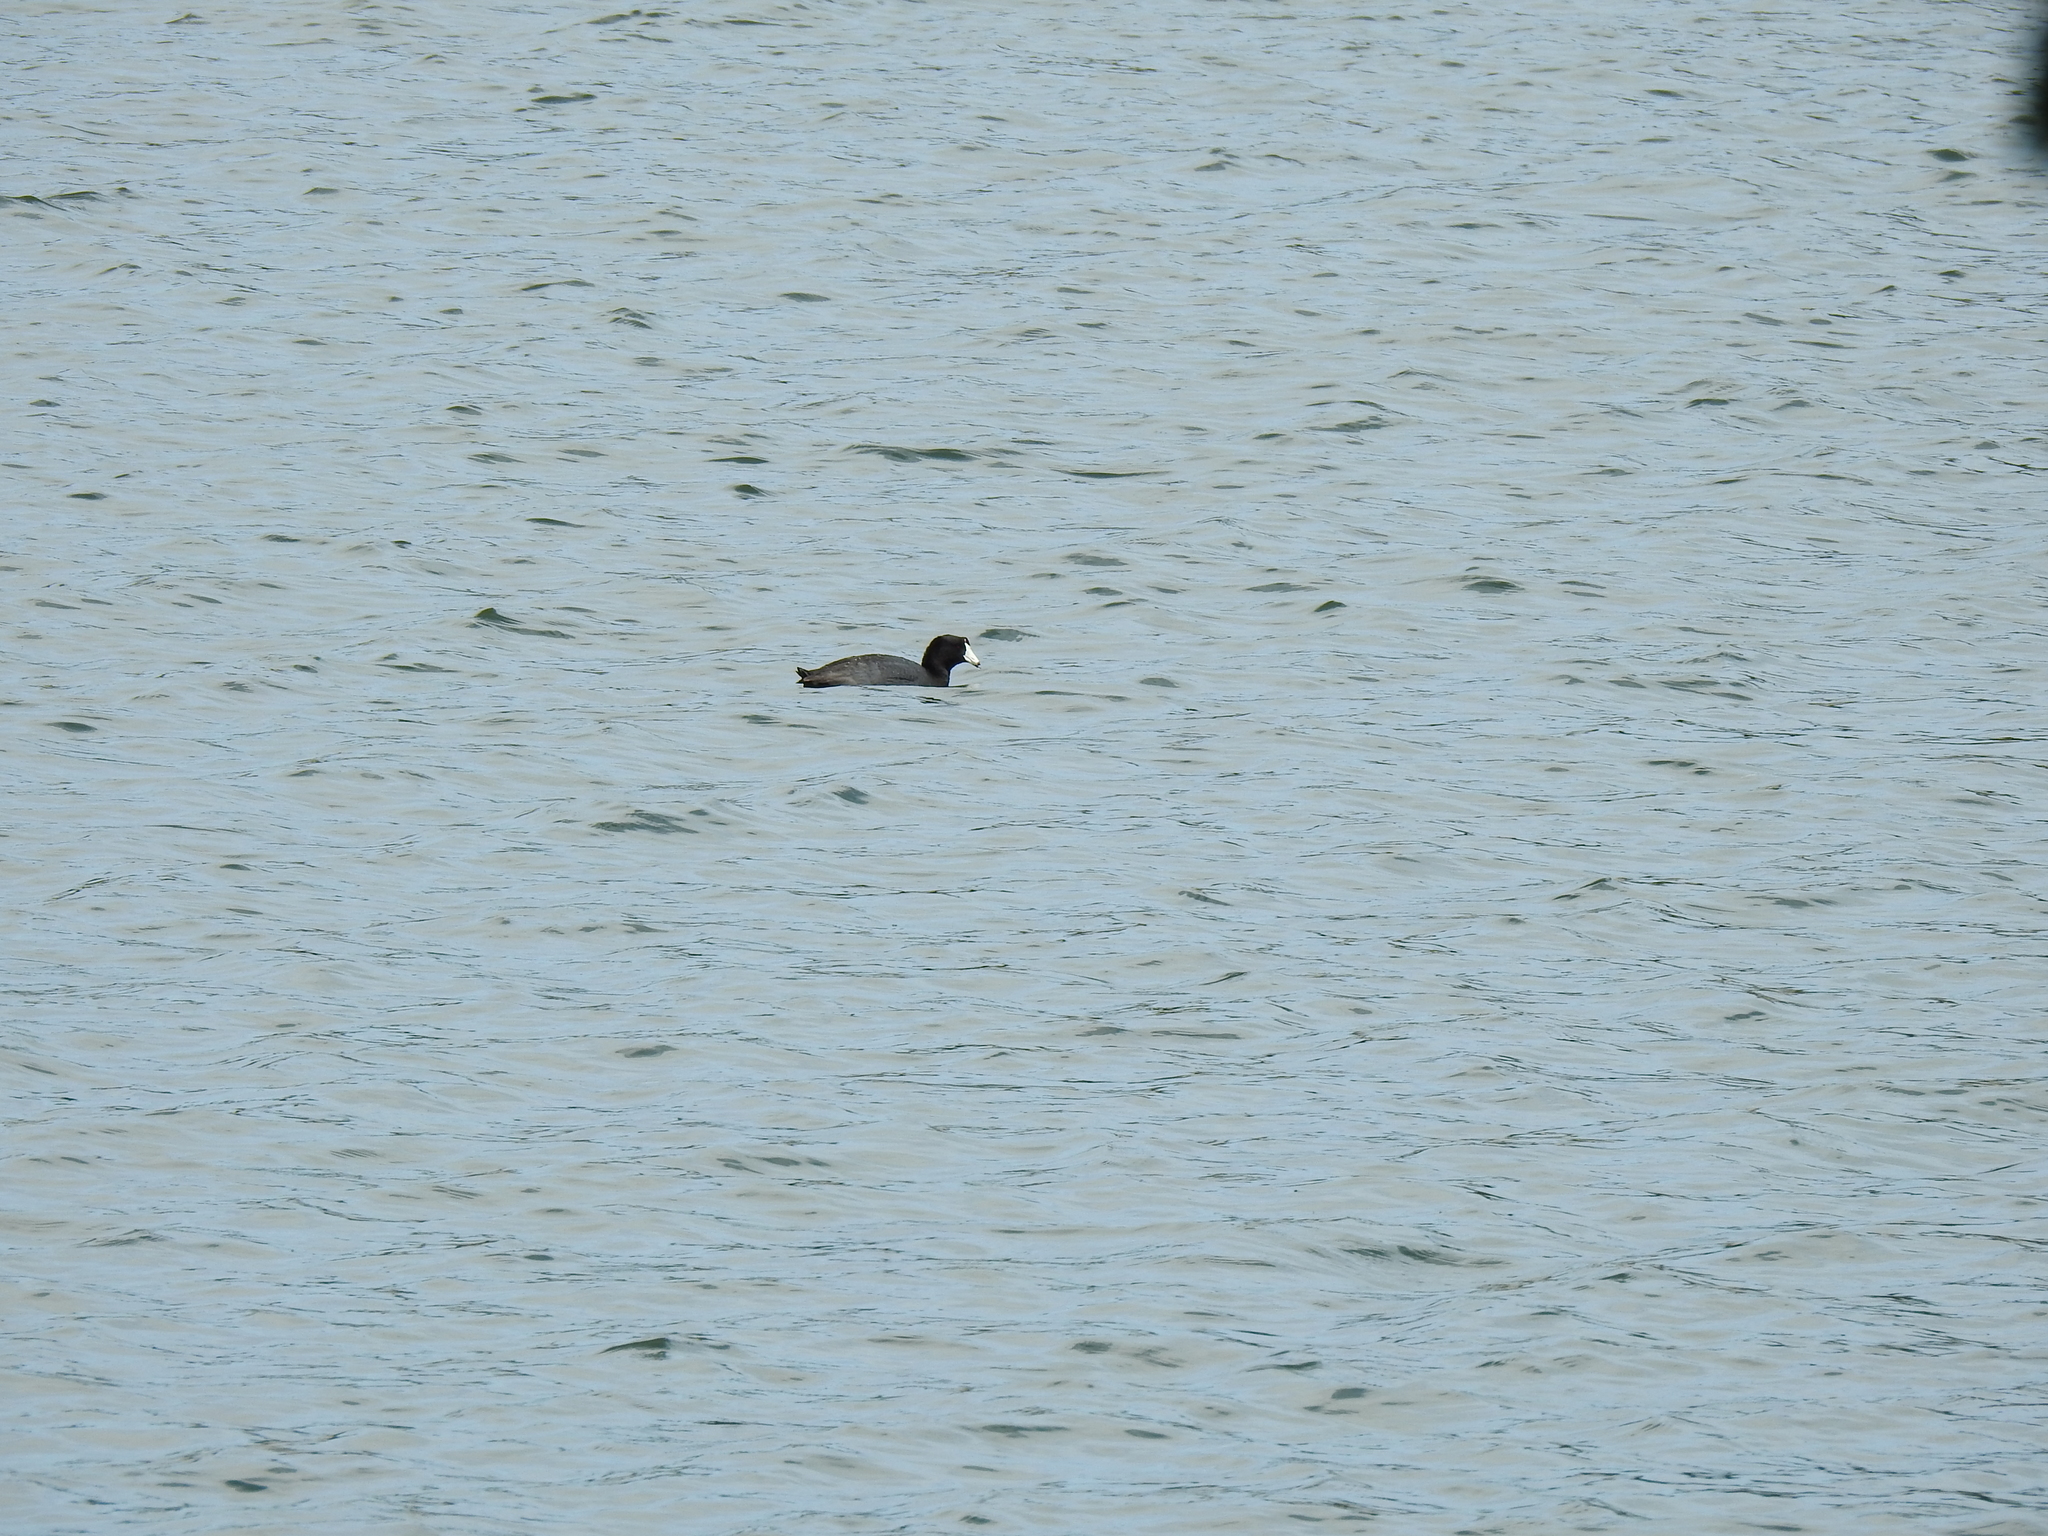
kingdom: Animalia
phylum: Chordata
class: Aves
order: Gruiformes
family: Rallidae
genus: Fulica
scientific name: Fulica americana
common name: American coot
